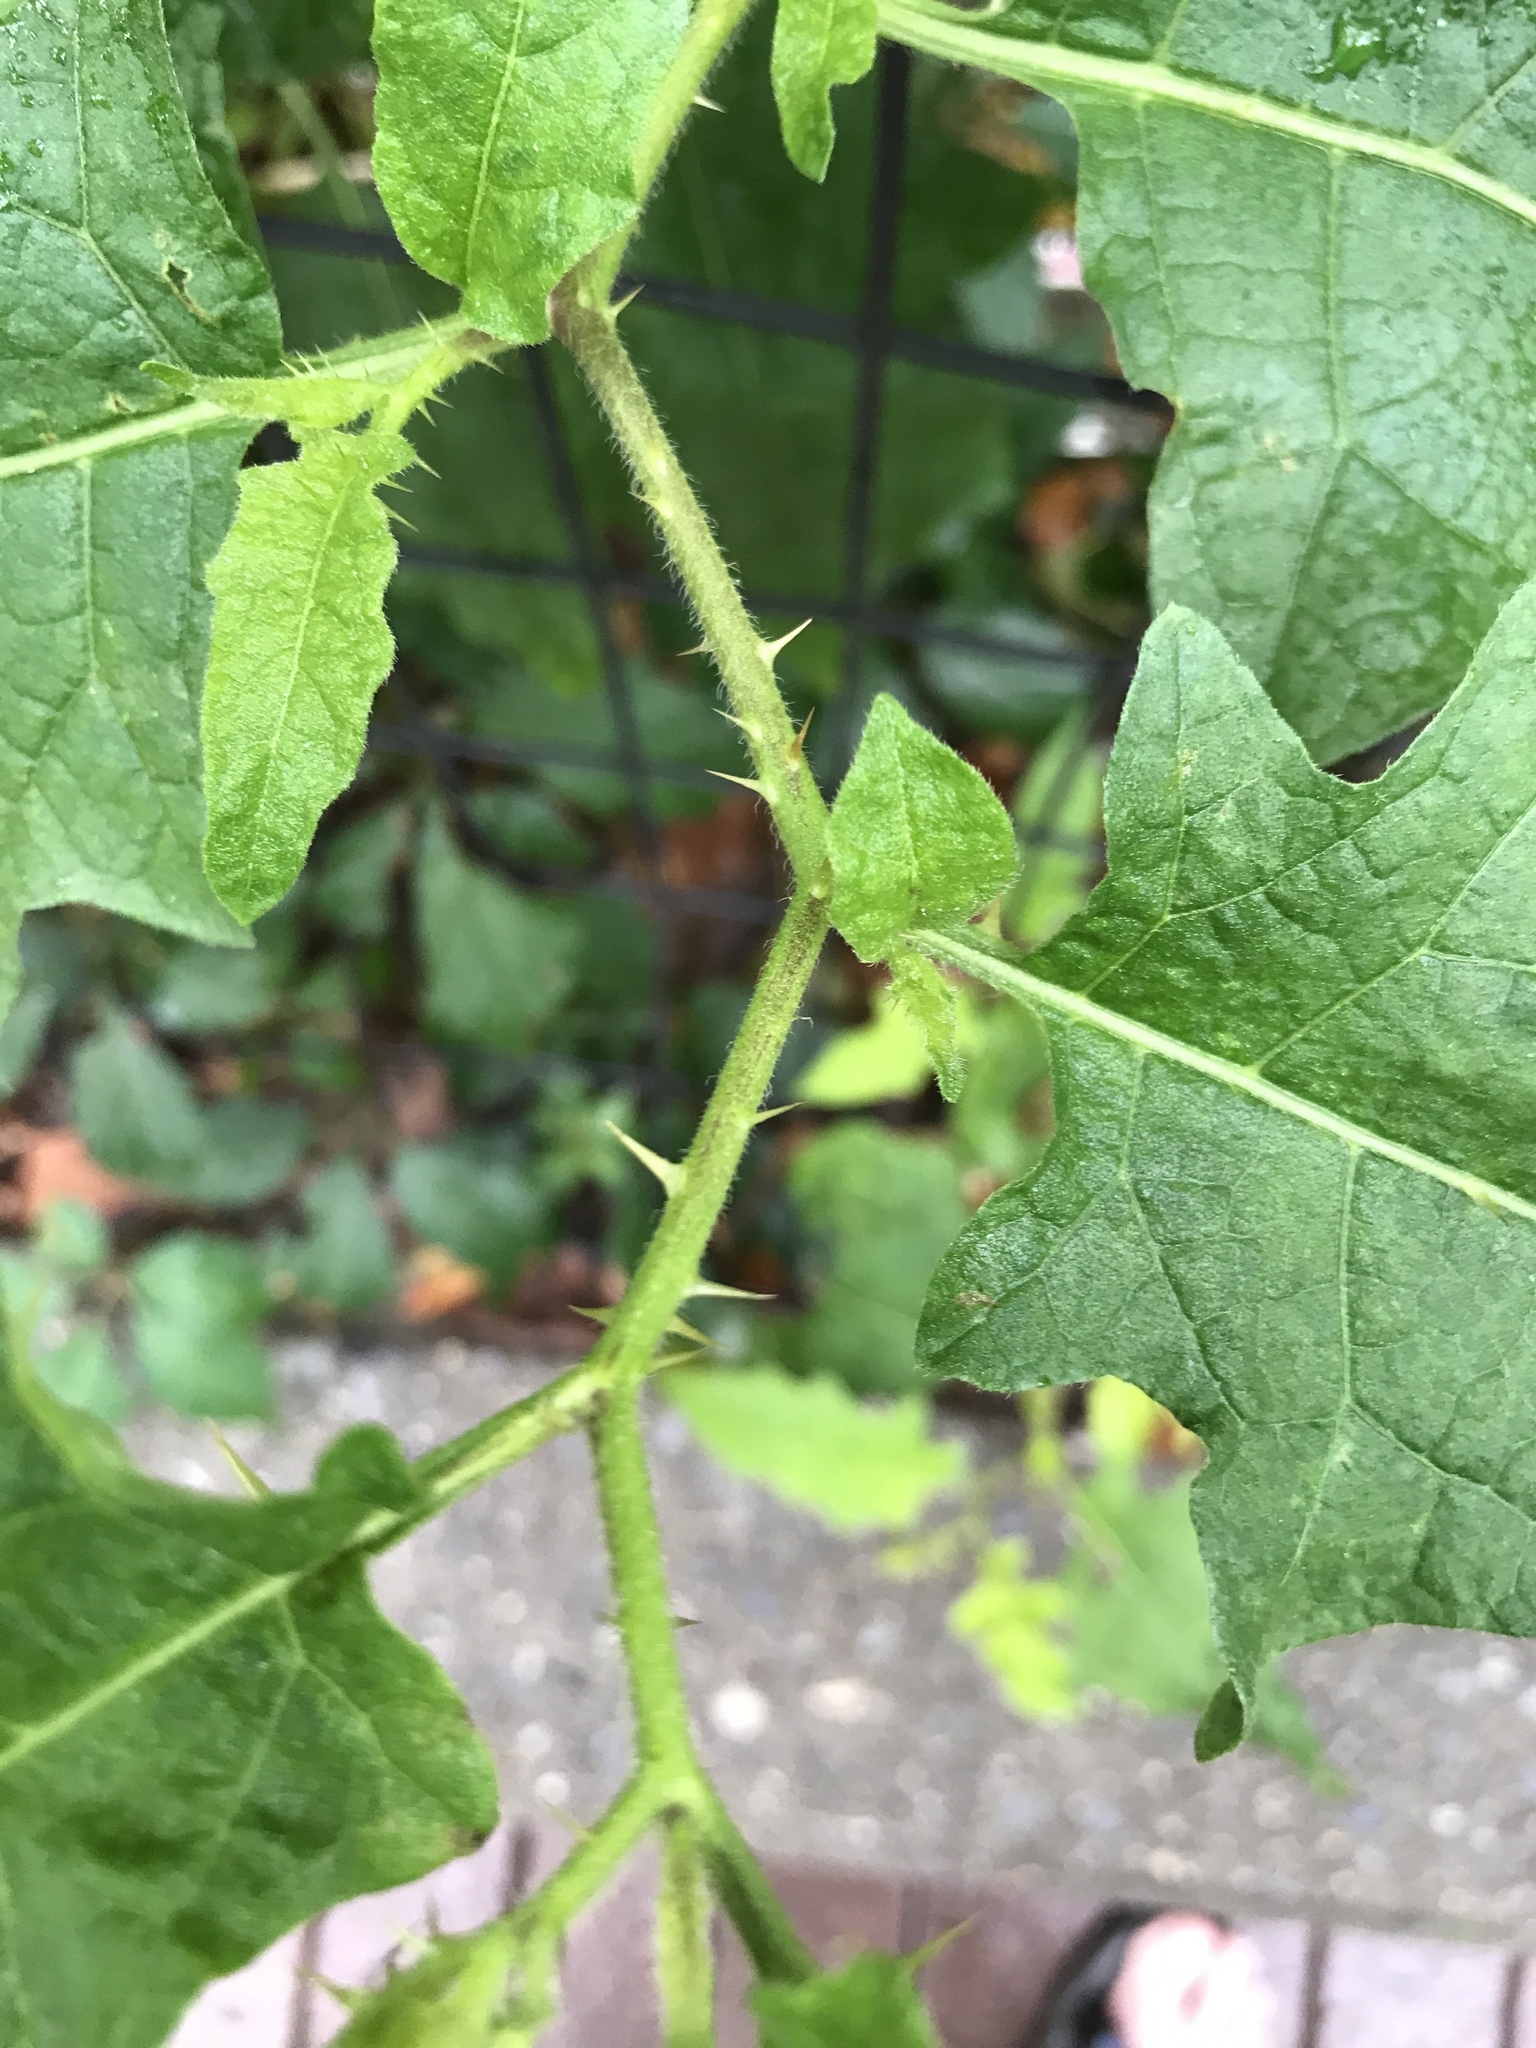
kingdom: Plantae
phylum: Tracheophyta
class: Magnoliopsida
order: Solanales
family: Solanaceae
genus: Solanum
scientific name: Solanum carolinense
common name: Horse-nettle
